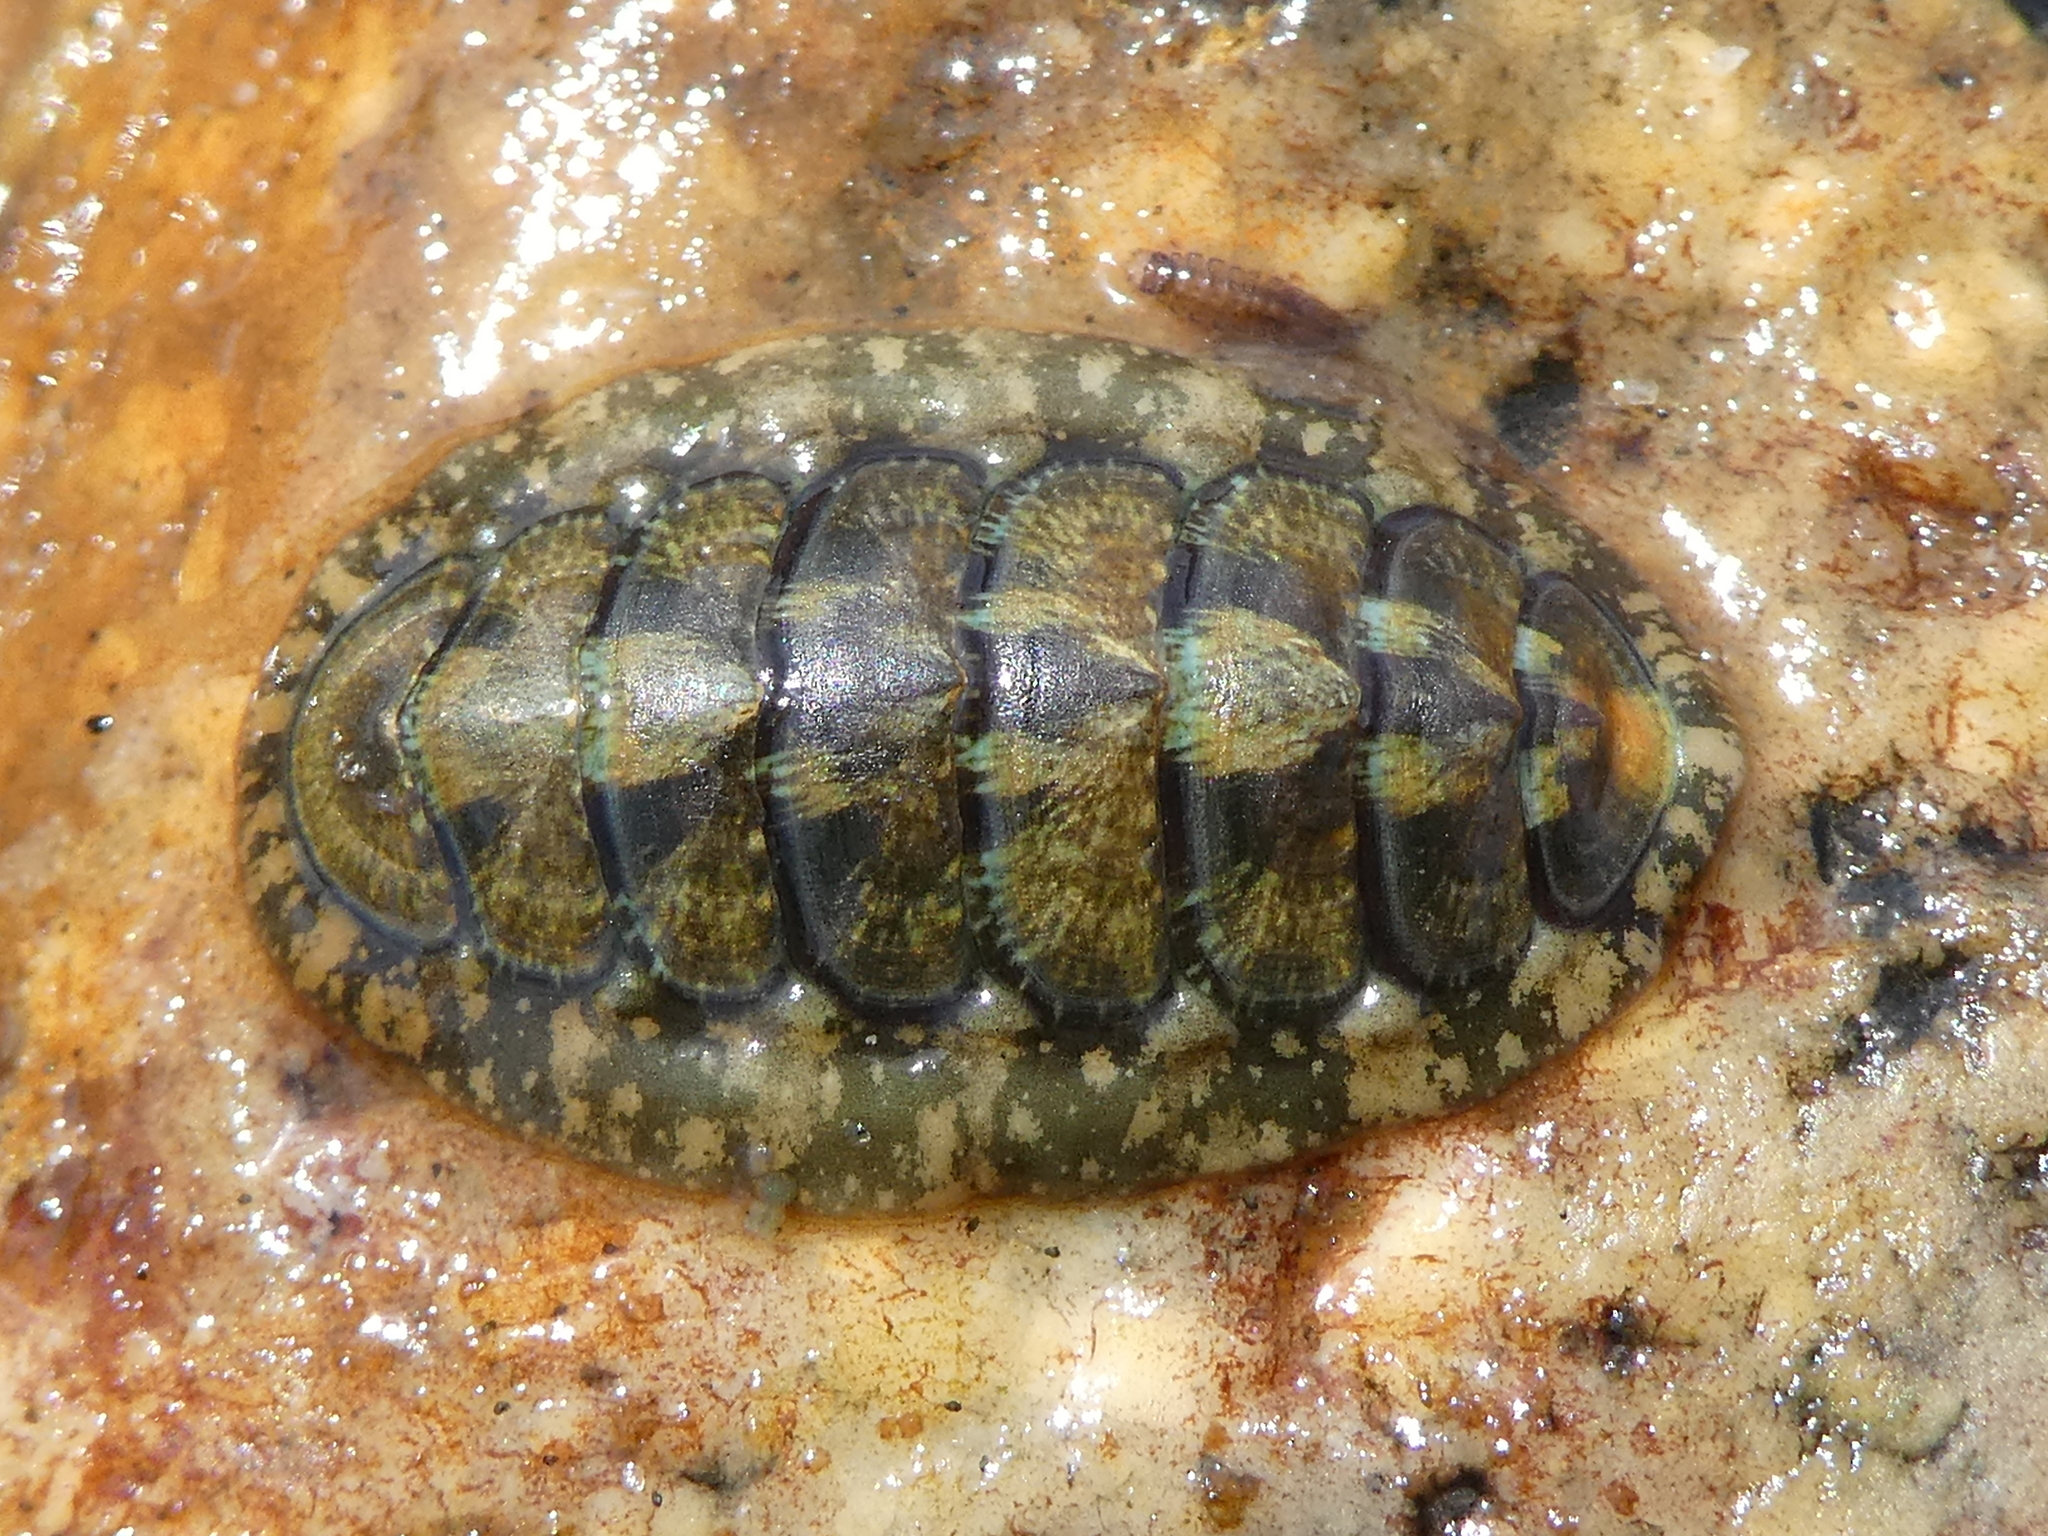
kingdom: Animalia
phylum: Mollusca
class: Polyplacophora
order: Chitonida
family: Tonicellidae
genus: Cyanoplax
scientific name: Cyanoplax dentiens
